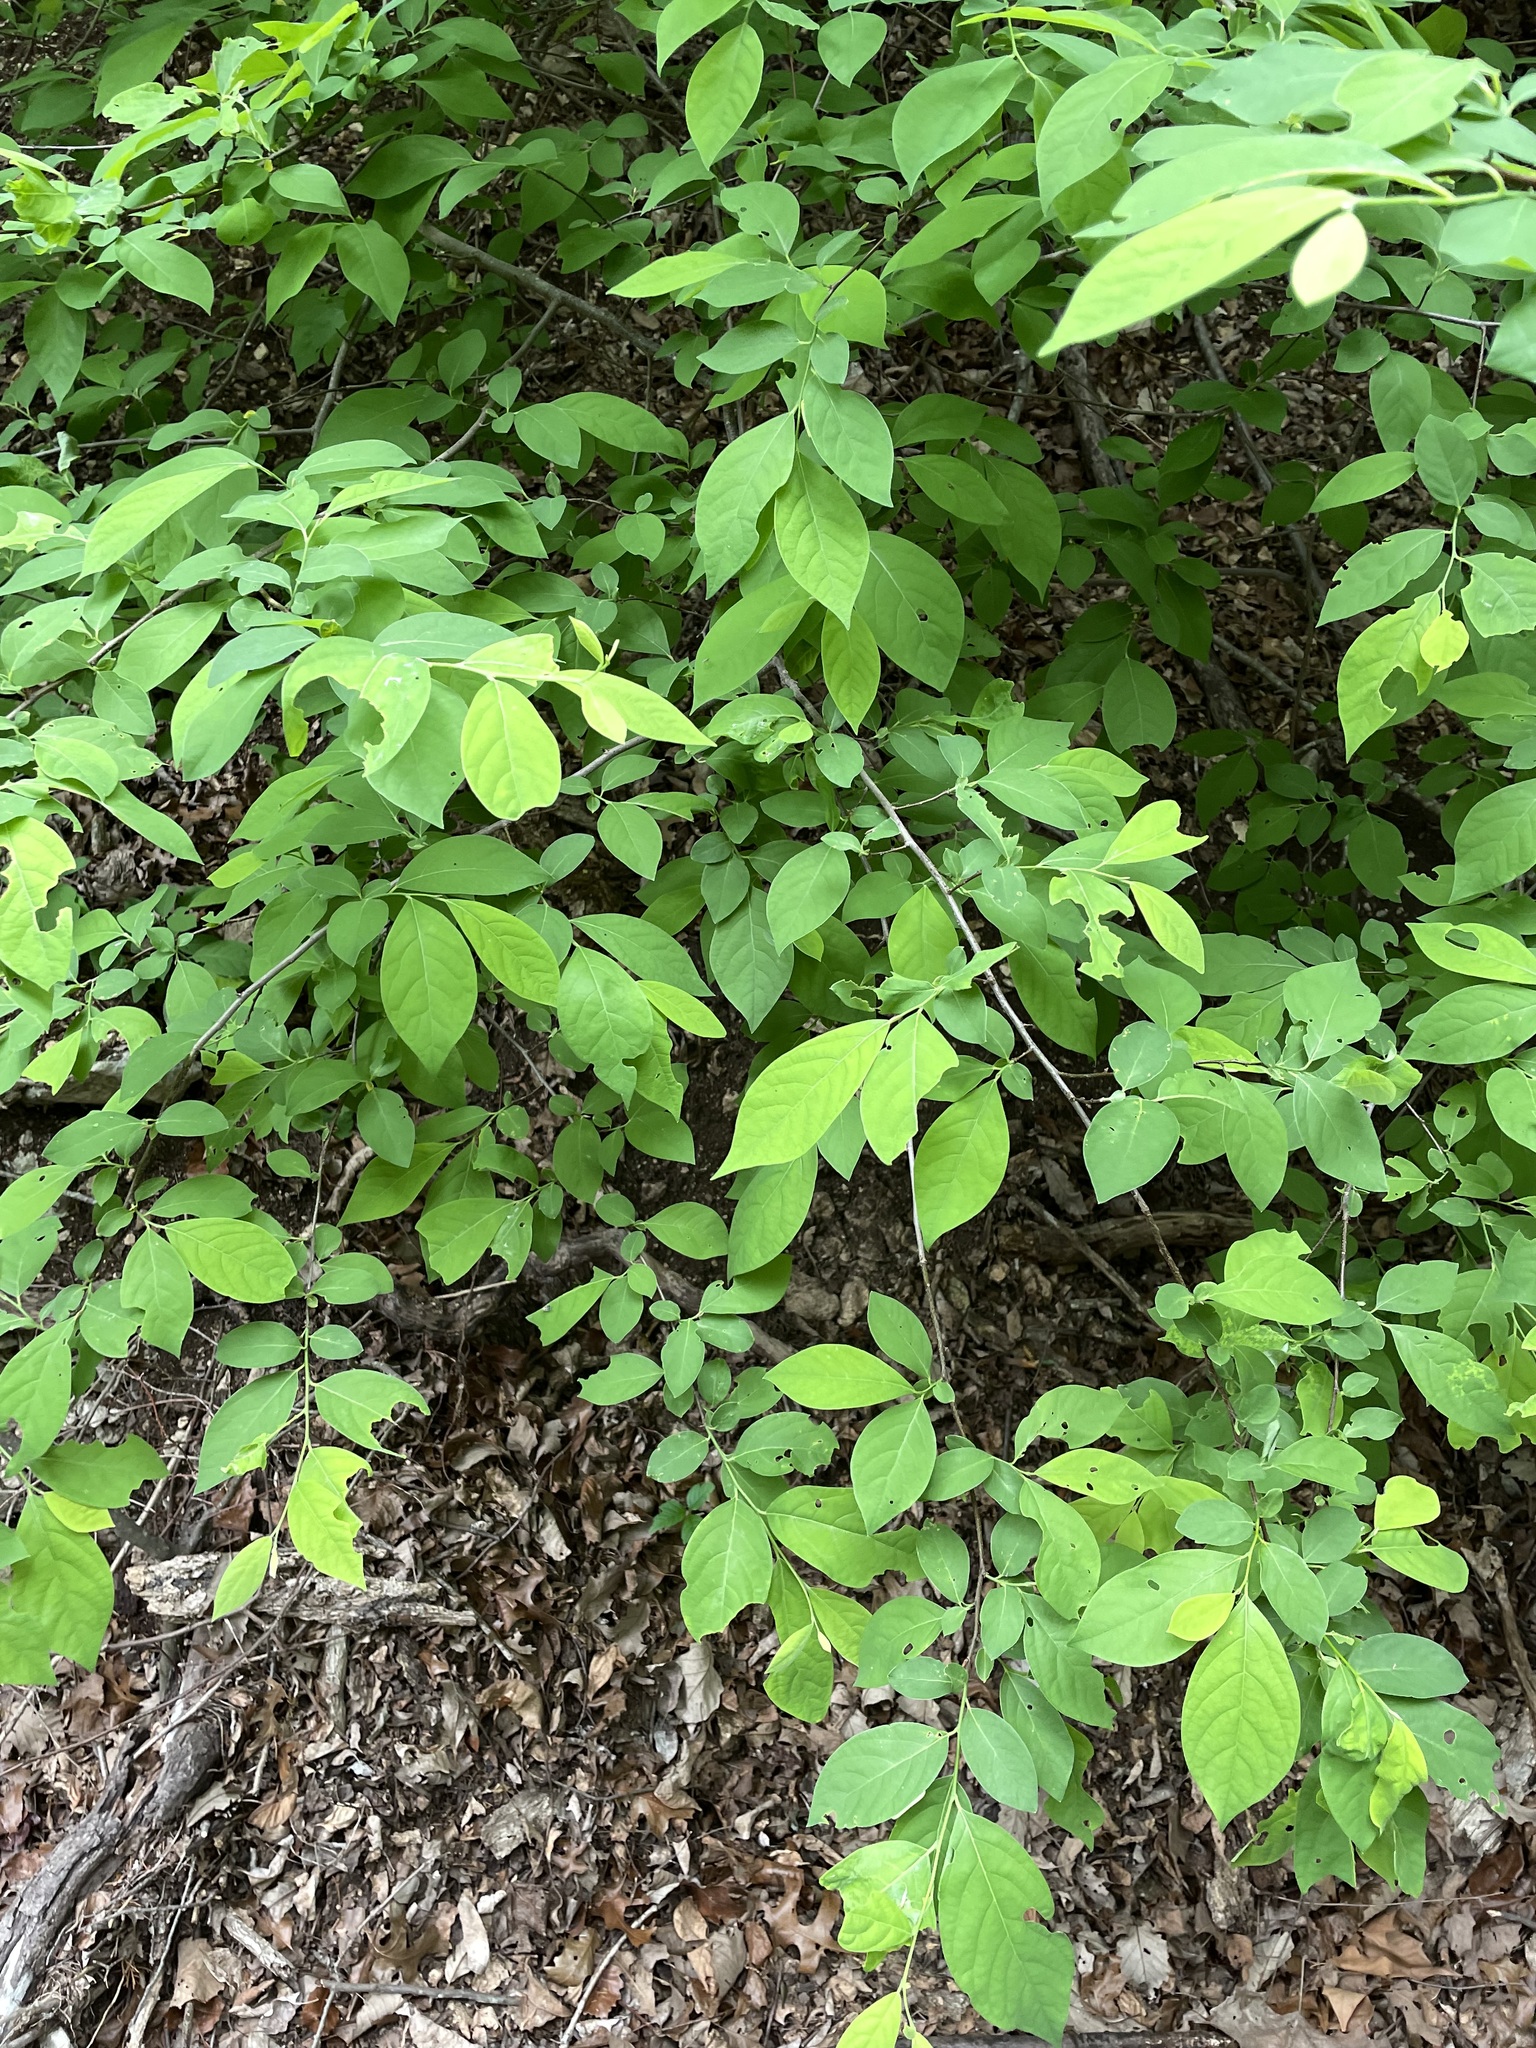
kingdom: Plantae
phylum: Tracheophyta
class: Magnoliopsida
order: Laurales
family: Lauraceae
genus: Lindera
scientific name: Lindera benzoin
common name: Spicebush
